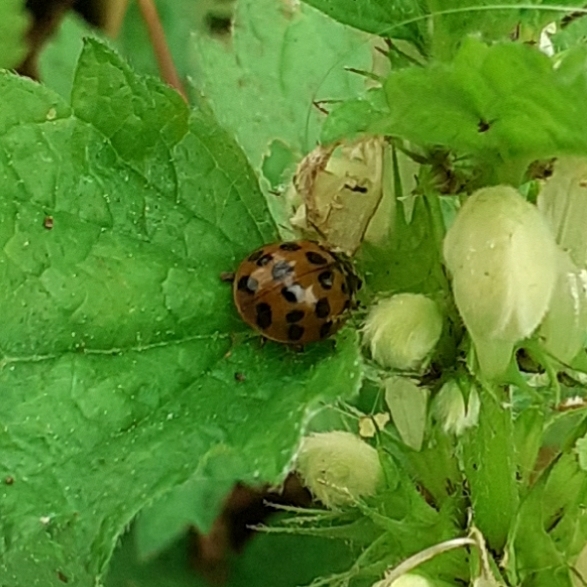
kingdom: Animalia
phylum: Arthropoda
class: Insecta
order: Coleoptera
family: Coccinellidae
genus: Harmonia
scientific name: Harmonia axyridis
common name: Harlequin ladybird
